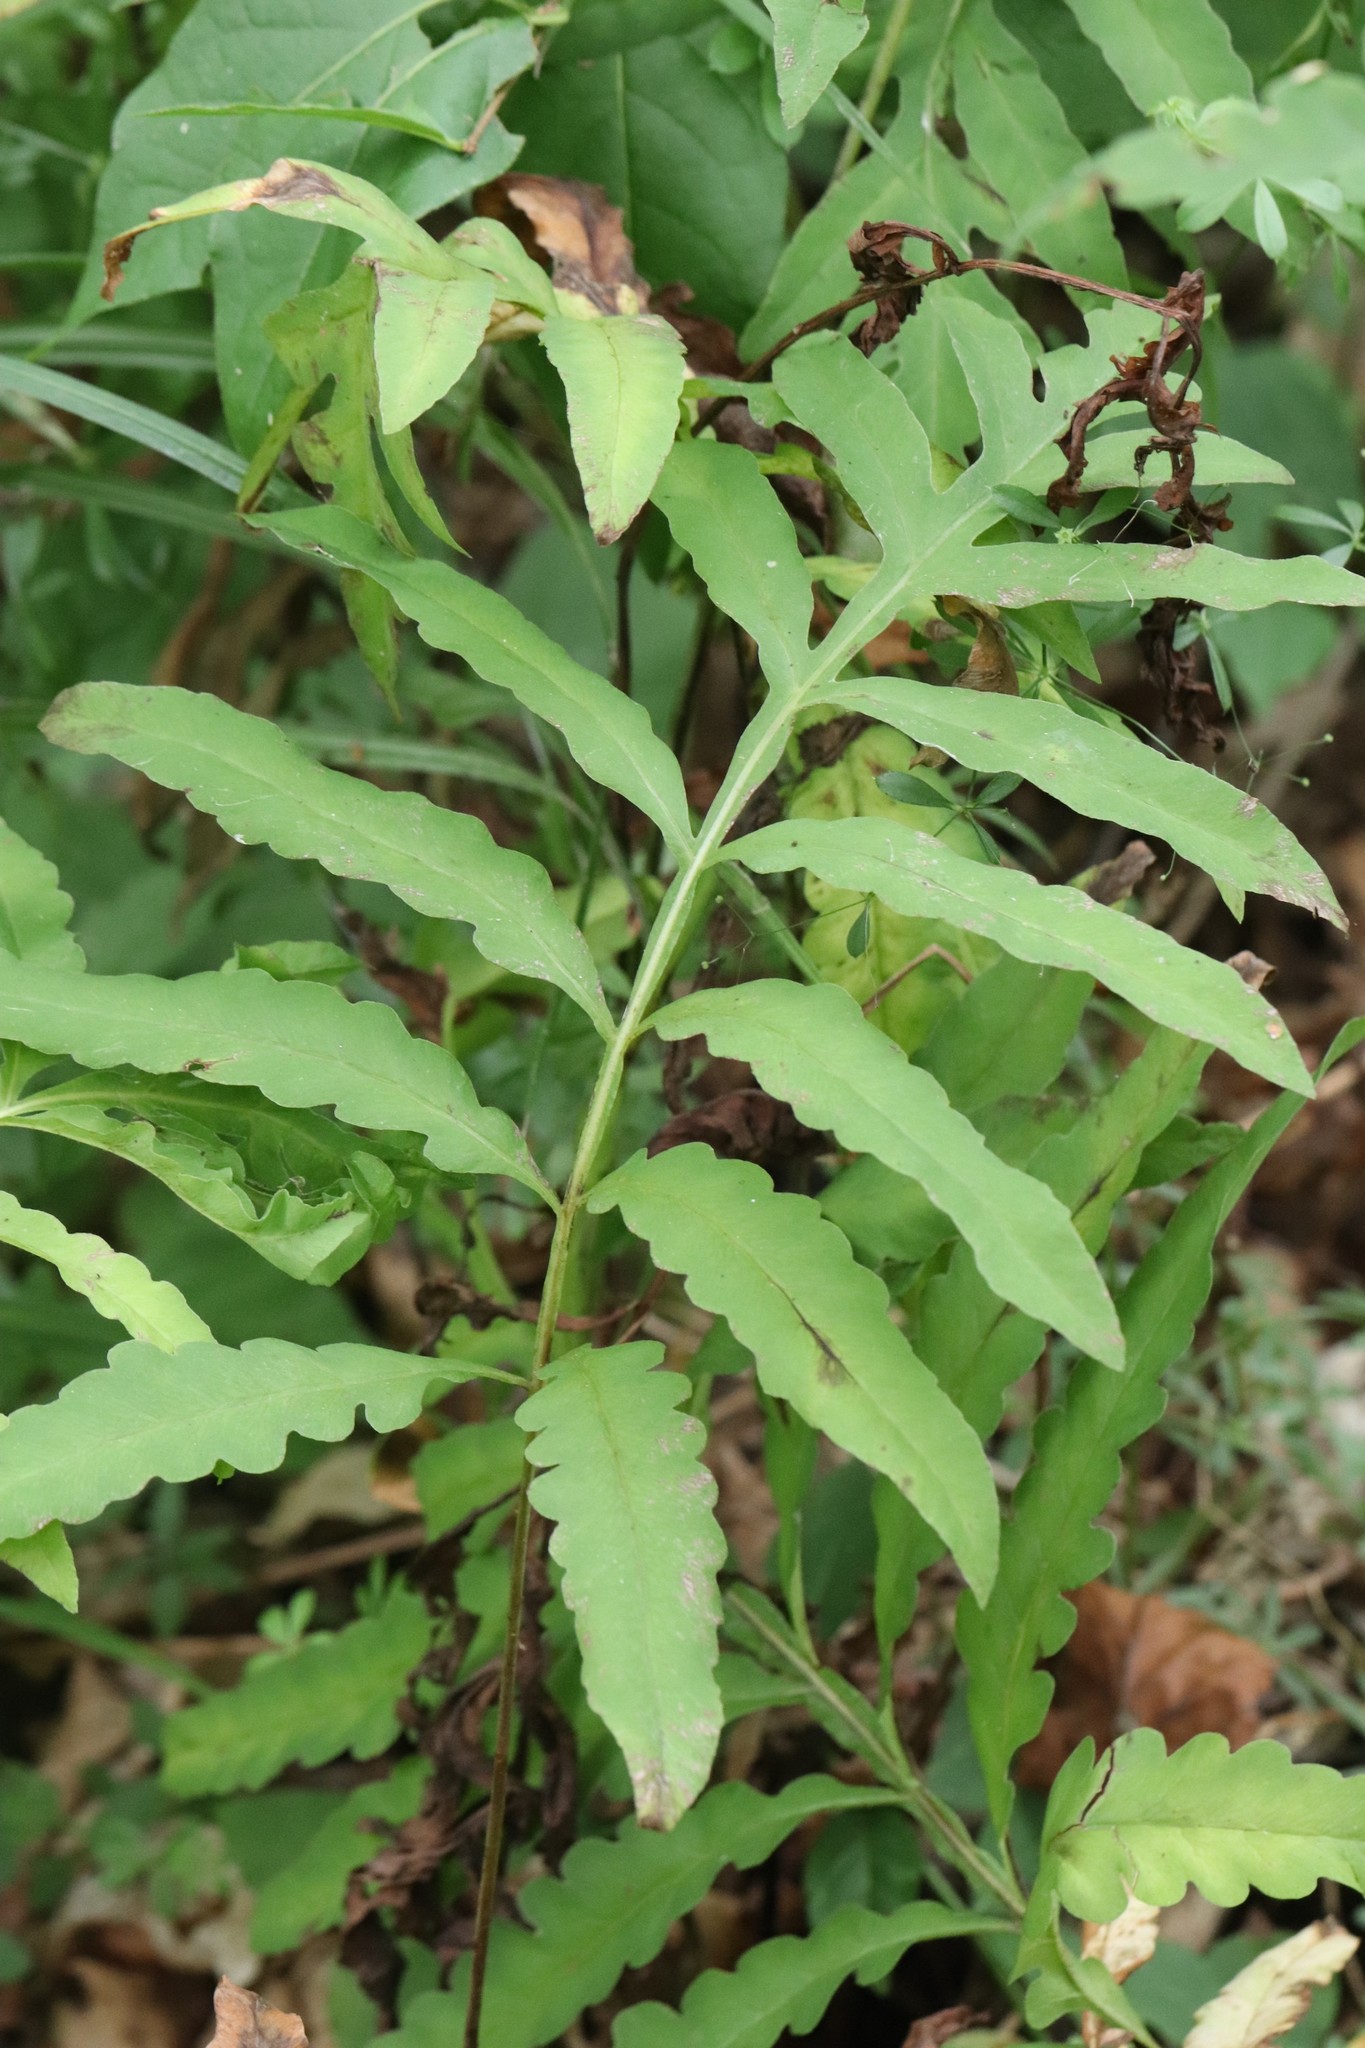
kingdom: Plantae
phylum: Tracheophyta
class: Polypodiopsida
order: Polypodiales
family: Onocleaceae
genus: Onoclea
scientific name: Onoclea sensibilis
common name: Sensitive fern
